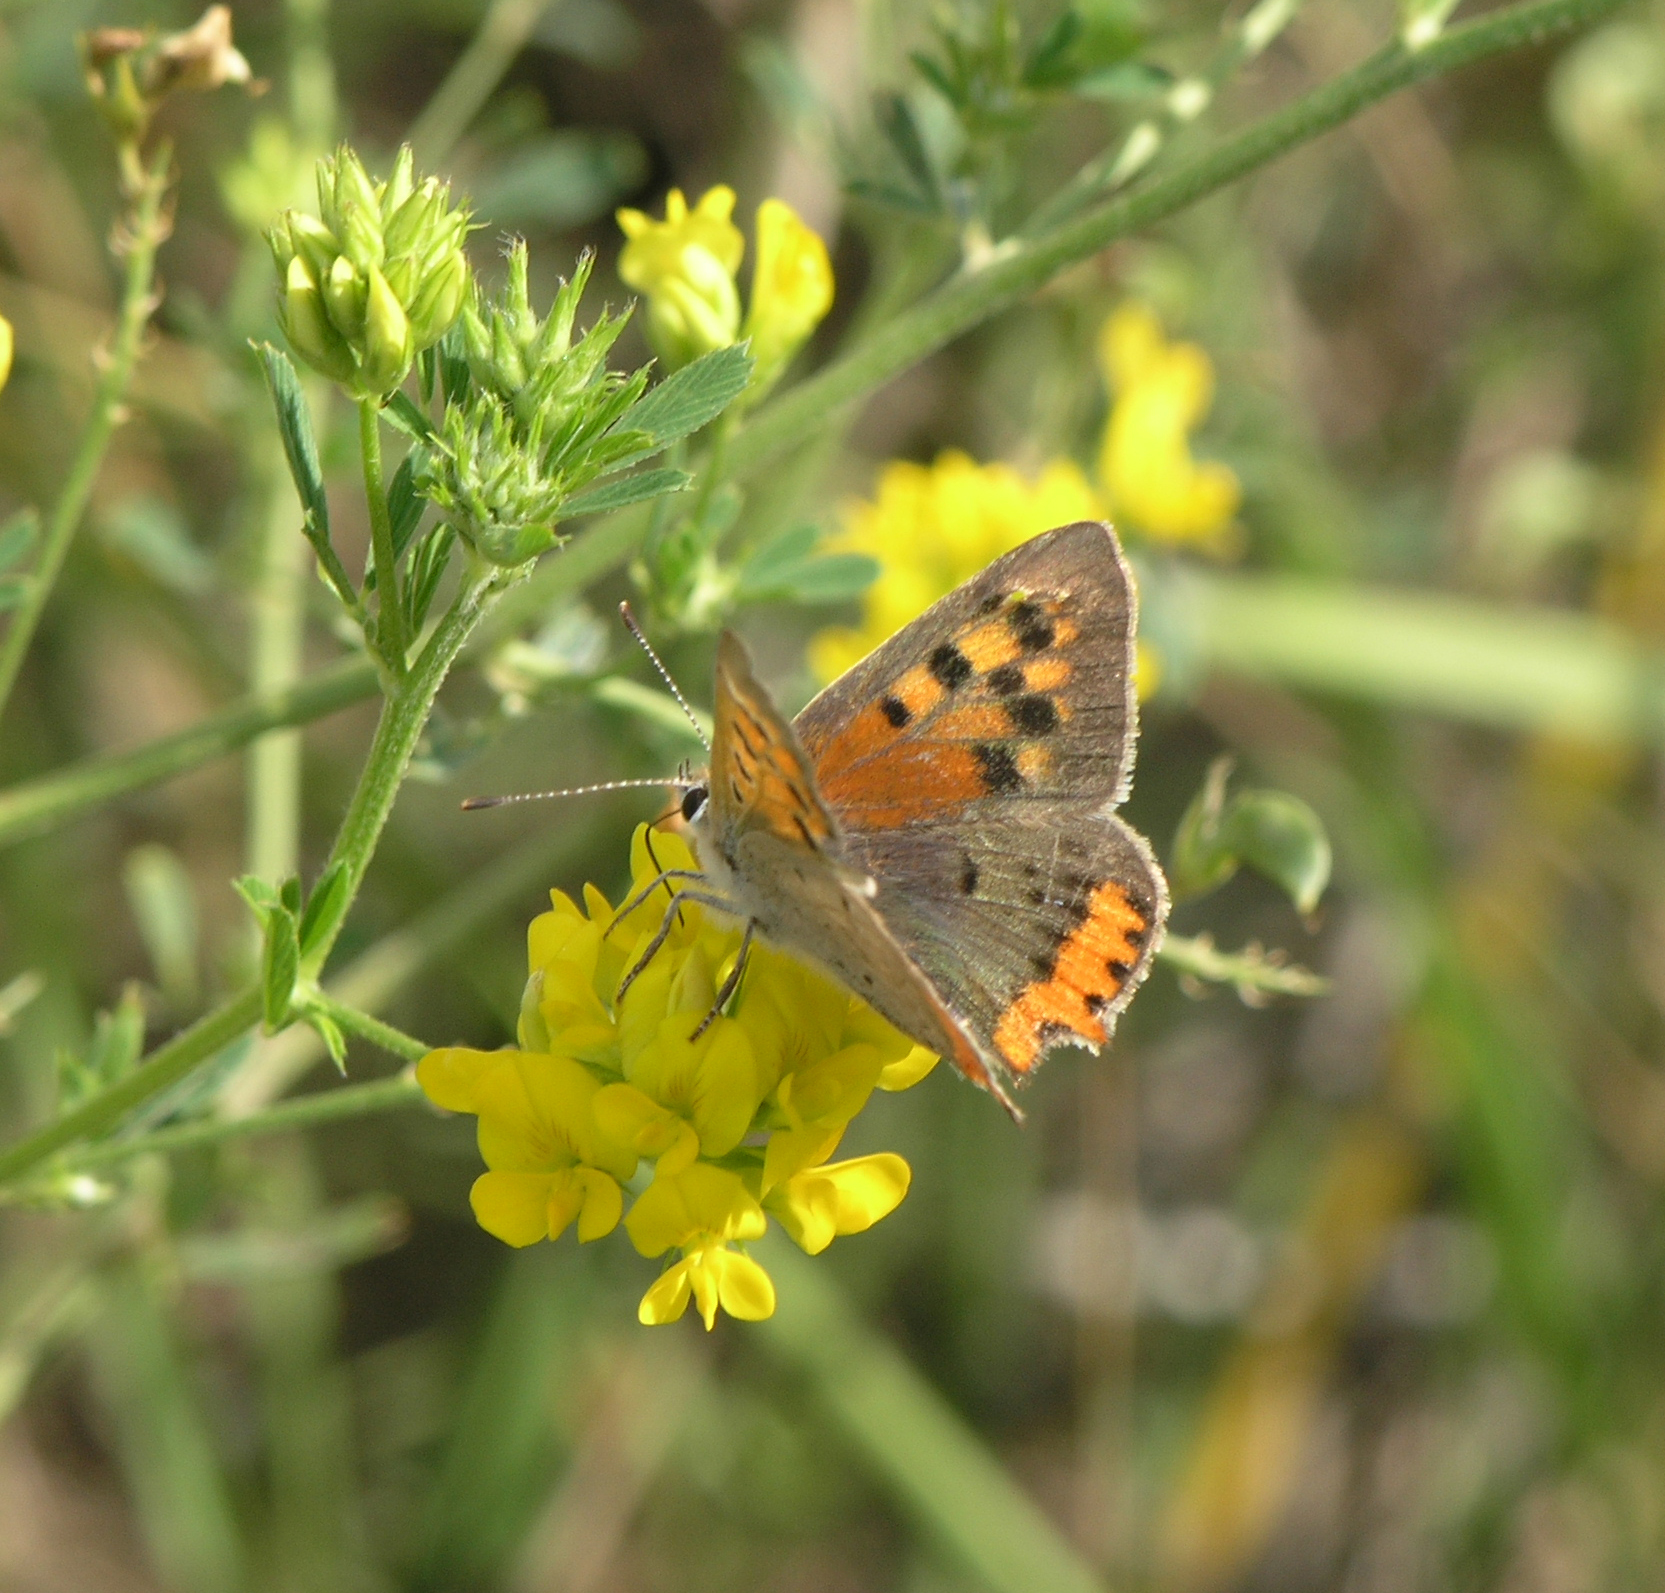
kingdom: Animalia
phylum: Arthropoda
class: Insecta
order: Lepidoptera
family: Lycaenidae
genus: Lycaena
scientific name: Lycaena phlaeas
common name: Small copper
